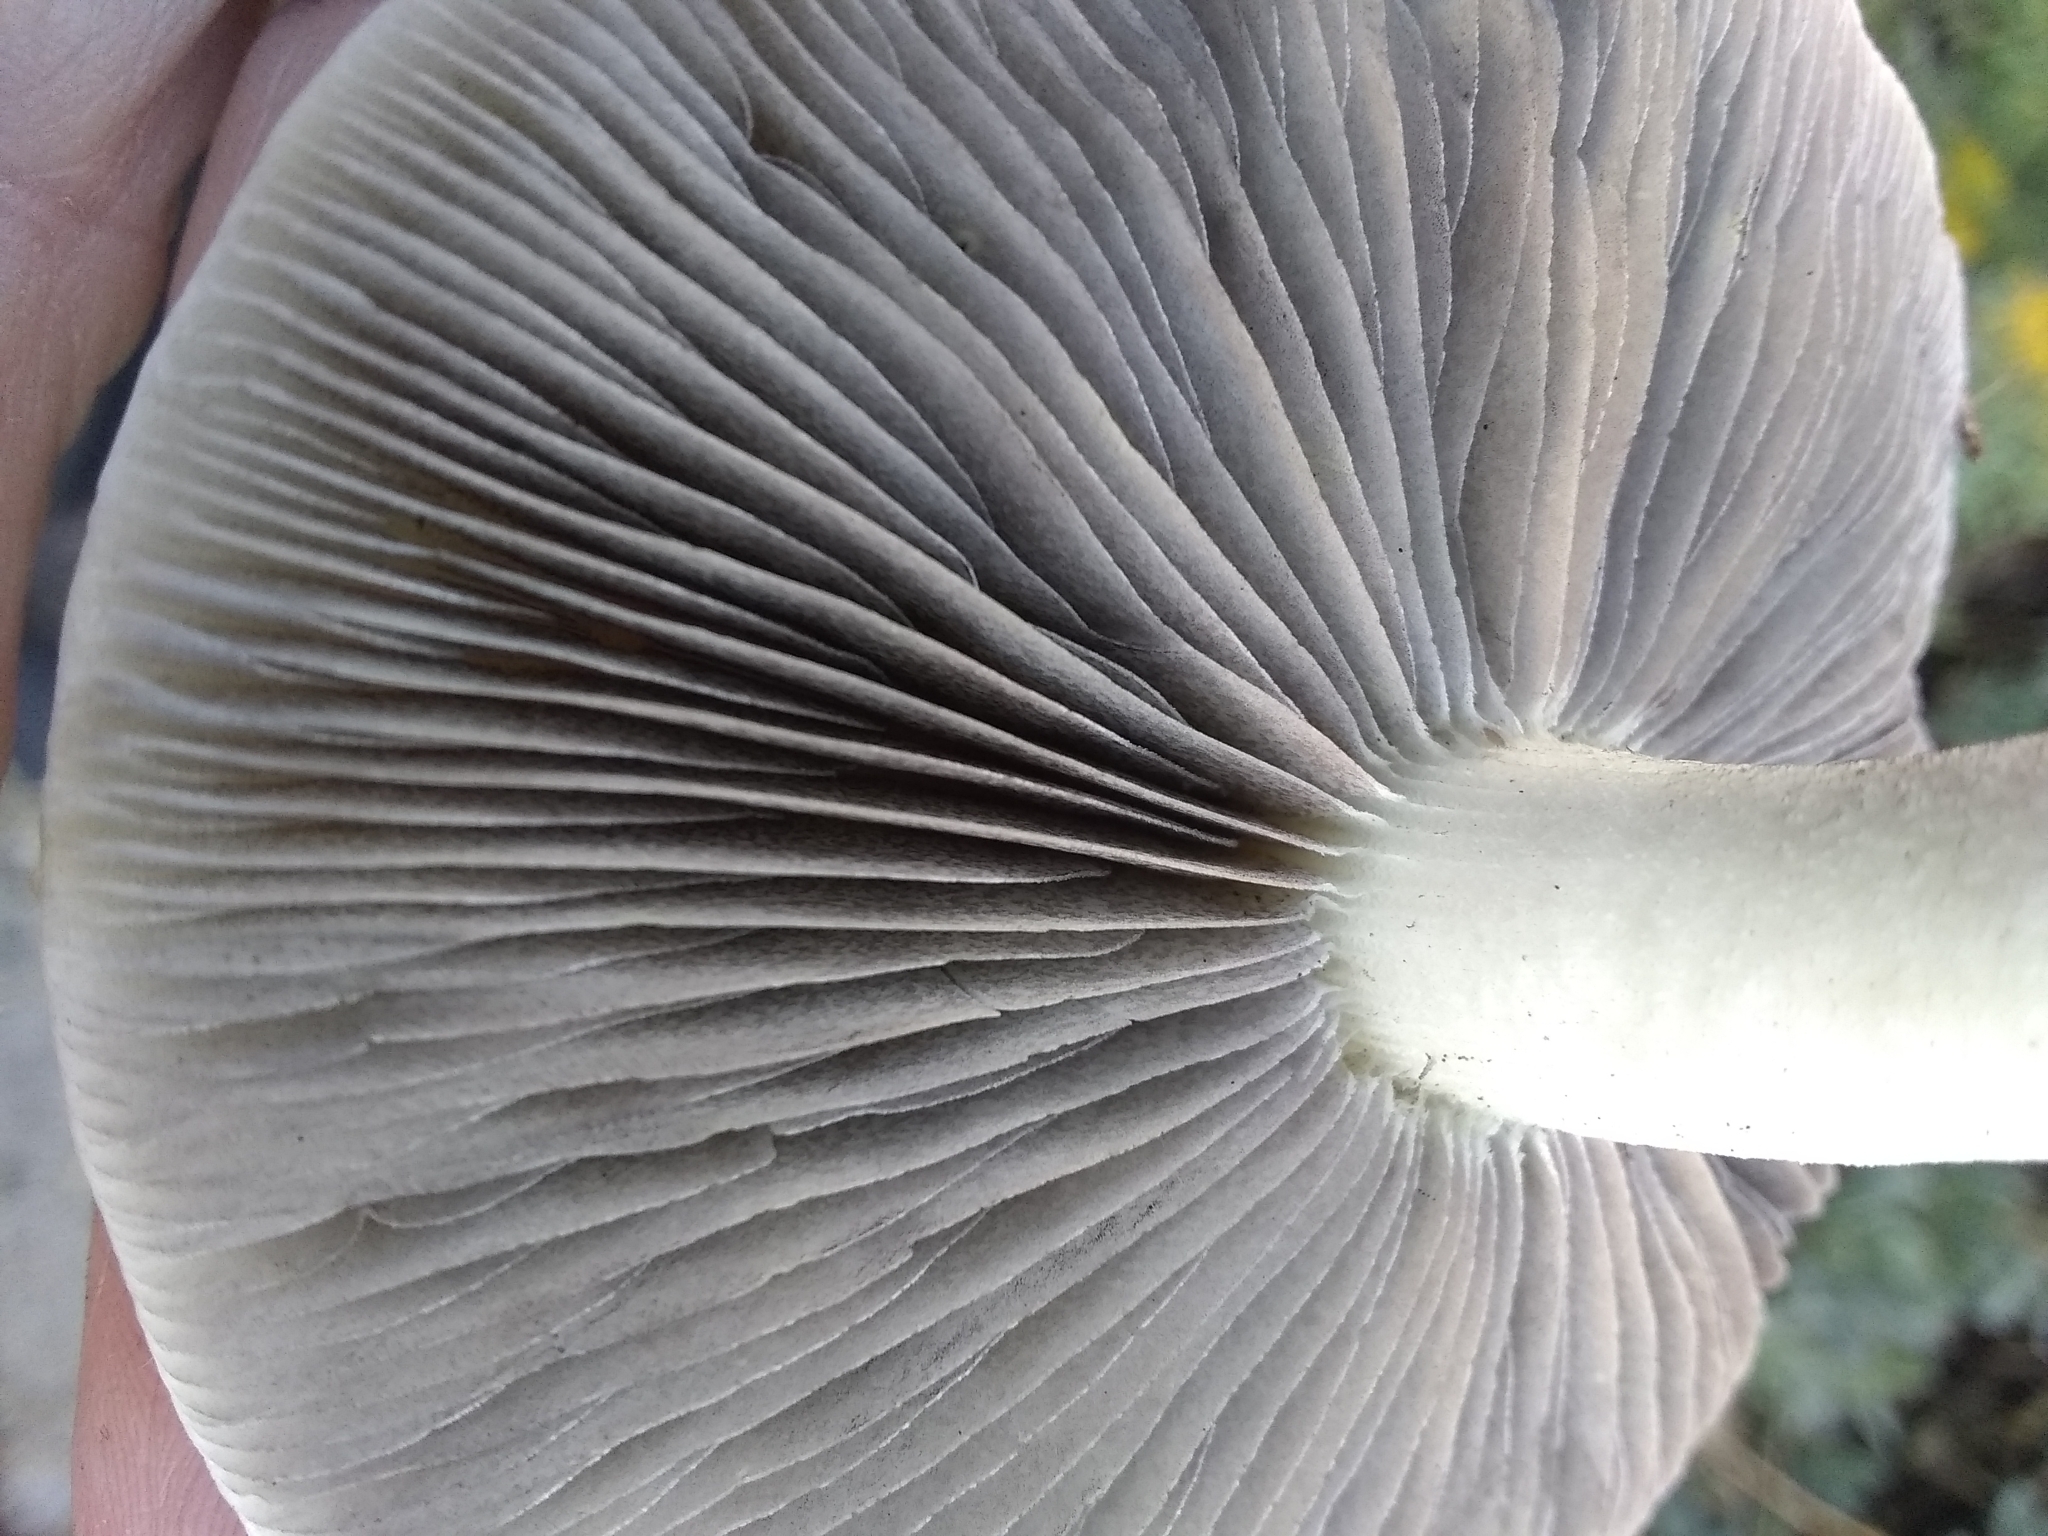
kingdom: Fungi
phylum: Basidiomycota
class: Agaricomycetes
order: Agaricales
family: Strophariaceae
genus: Leratiomyces
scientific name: Leratiomyces percevalii
